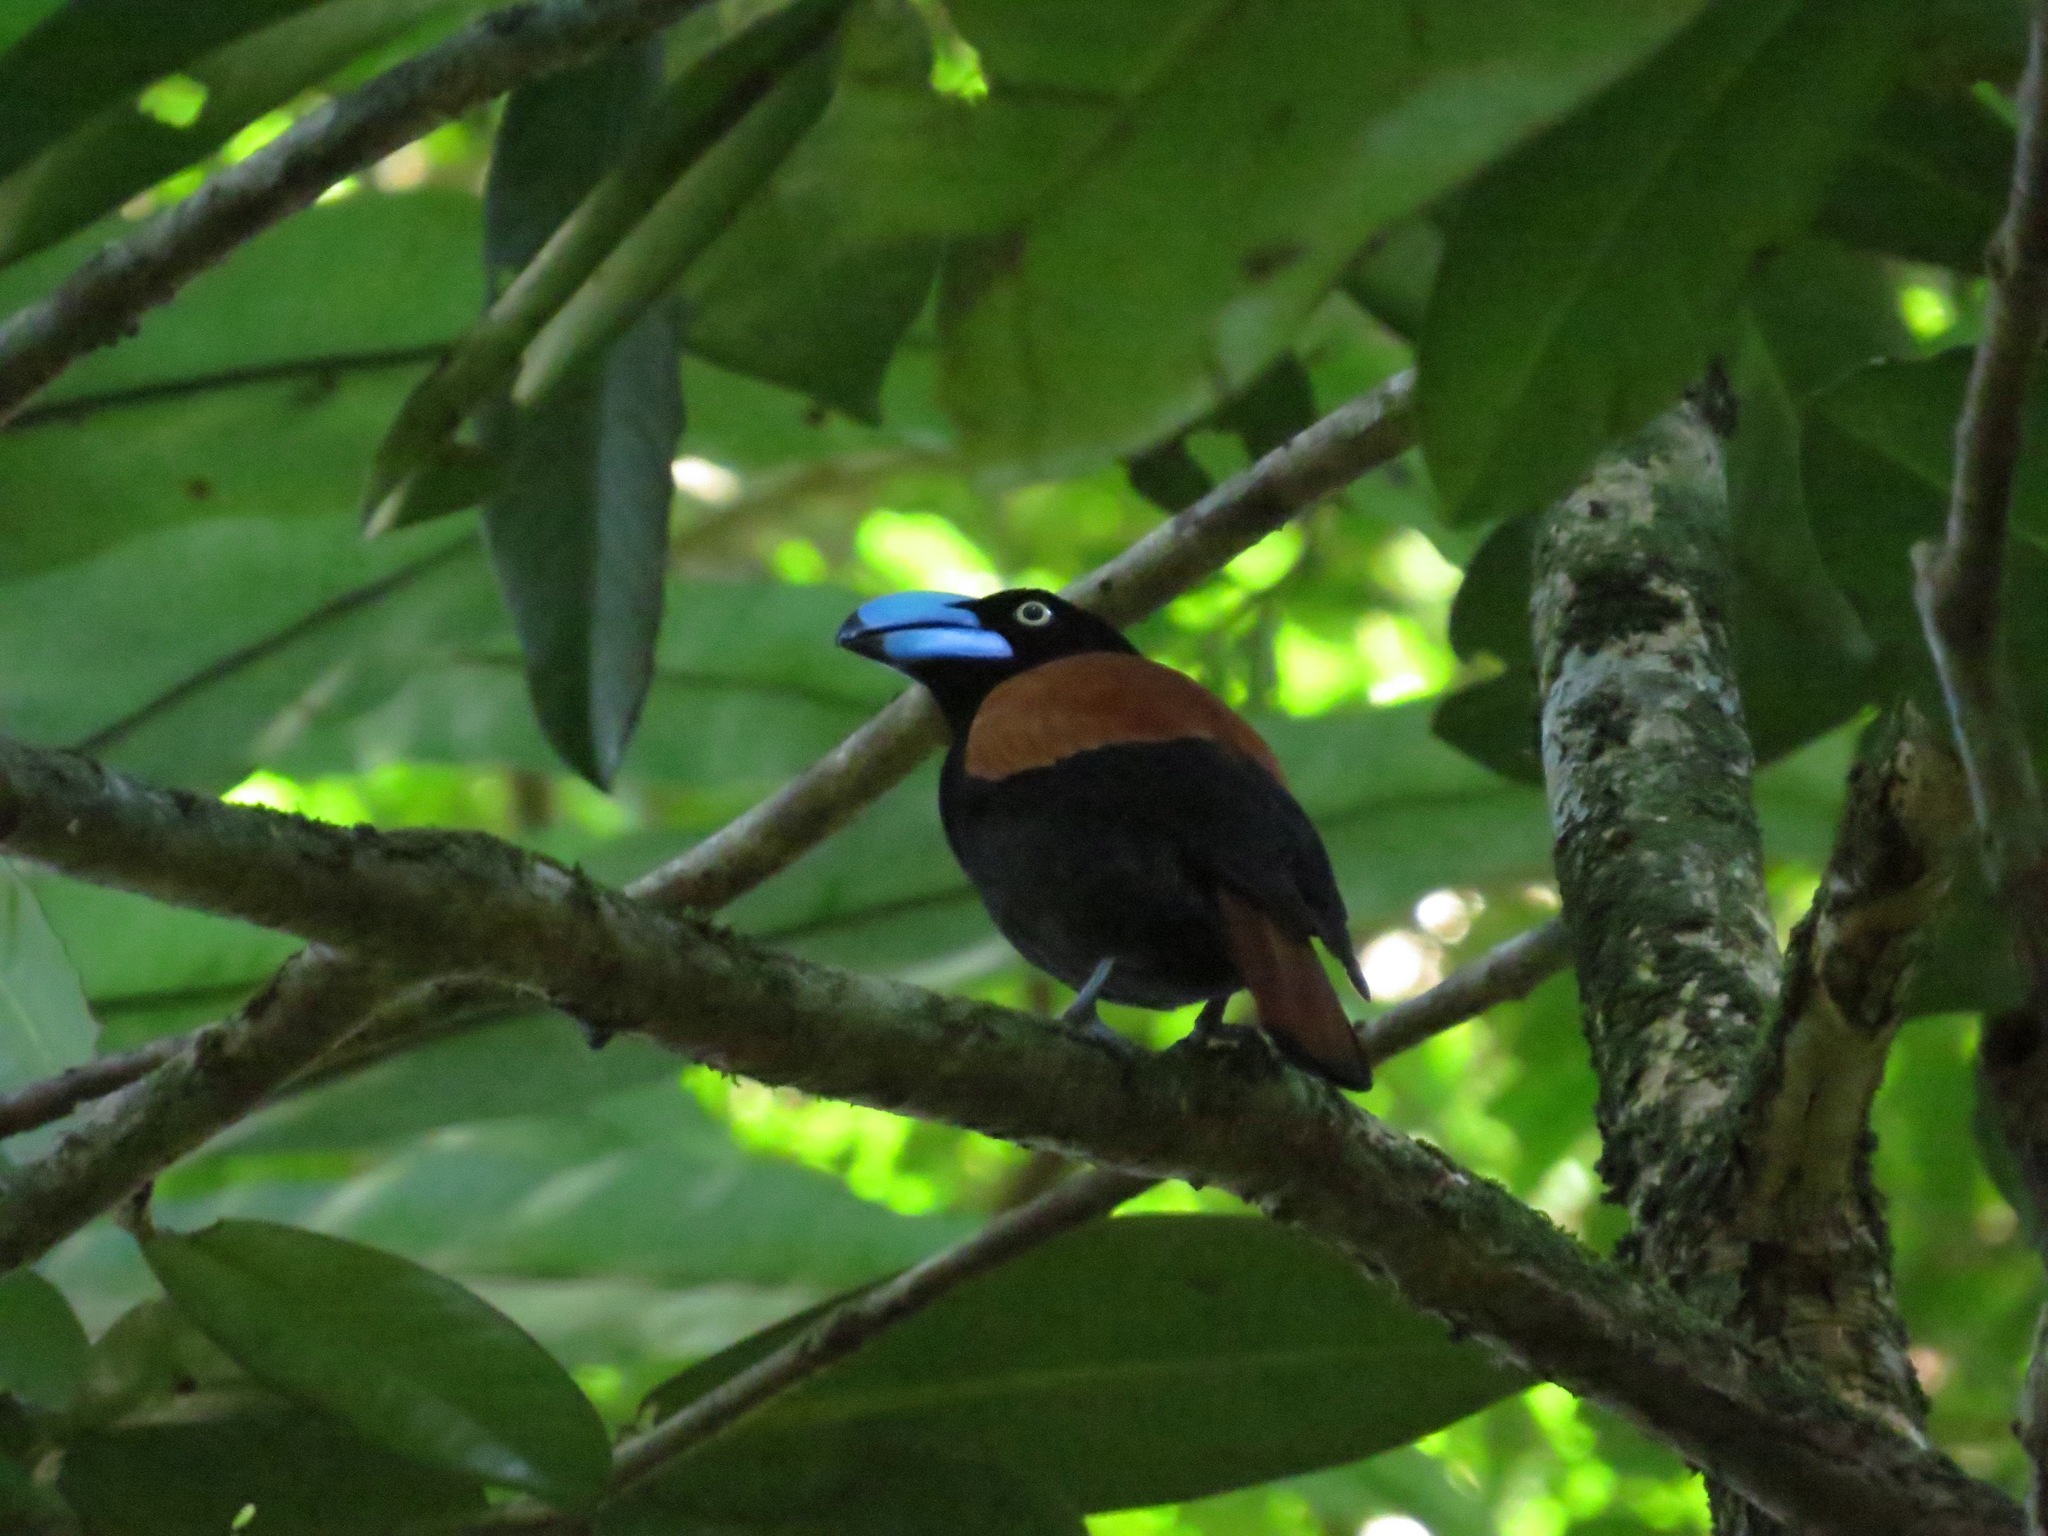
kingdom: Animalia
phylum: Chordata
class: Aves
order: Passeriformes
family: Vangidae
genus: Euryceros
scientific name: Euryceros prevostii
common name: Helmet vanga
